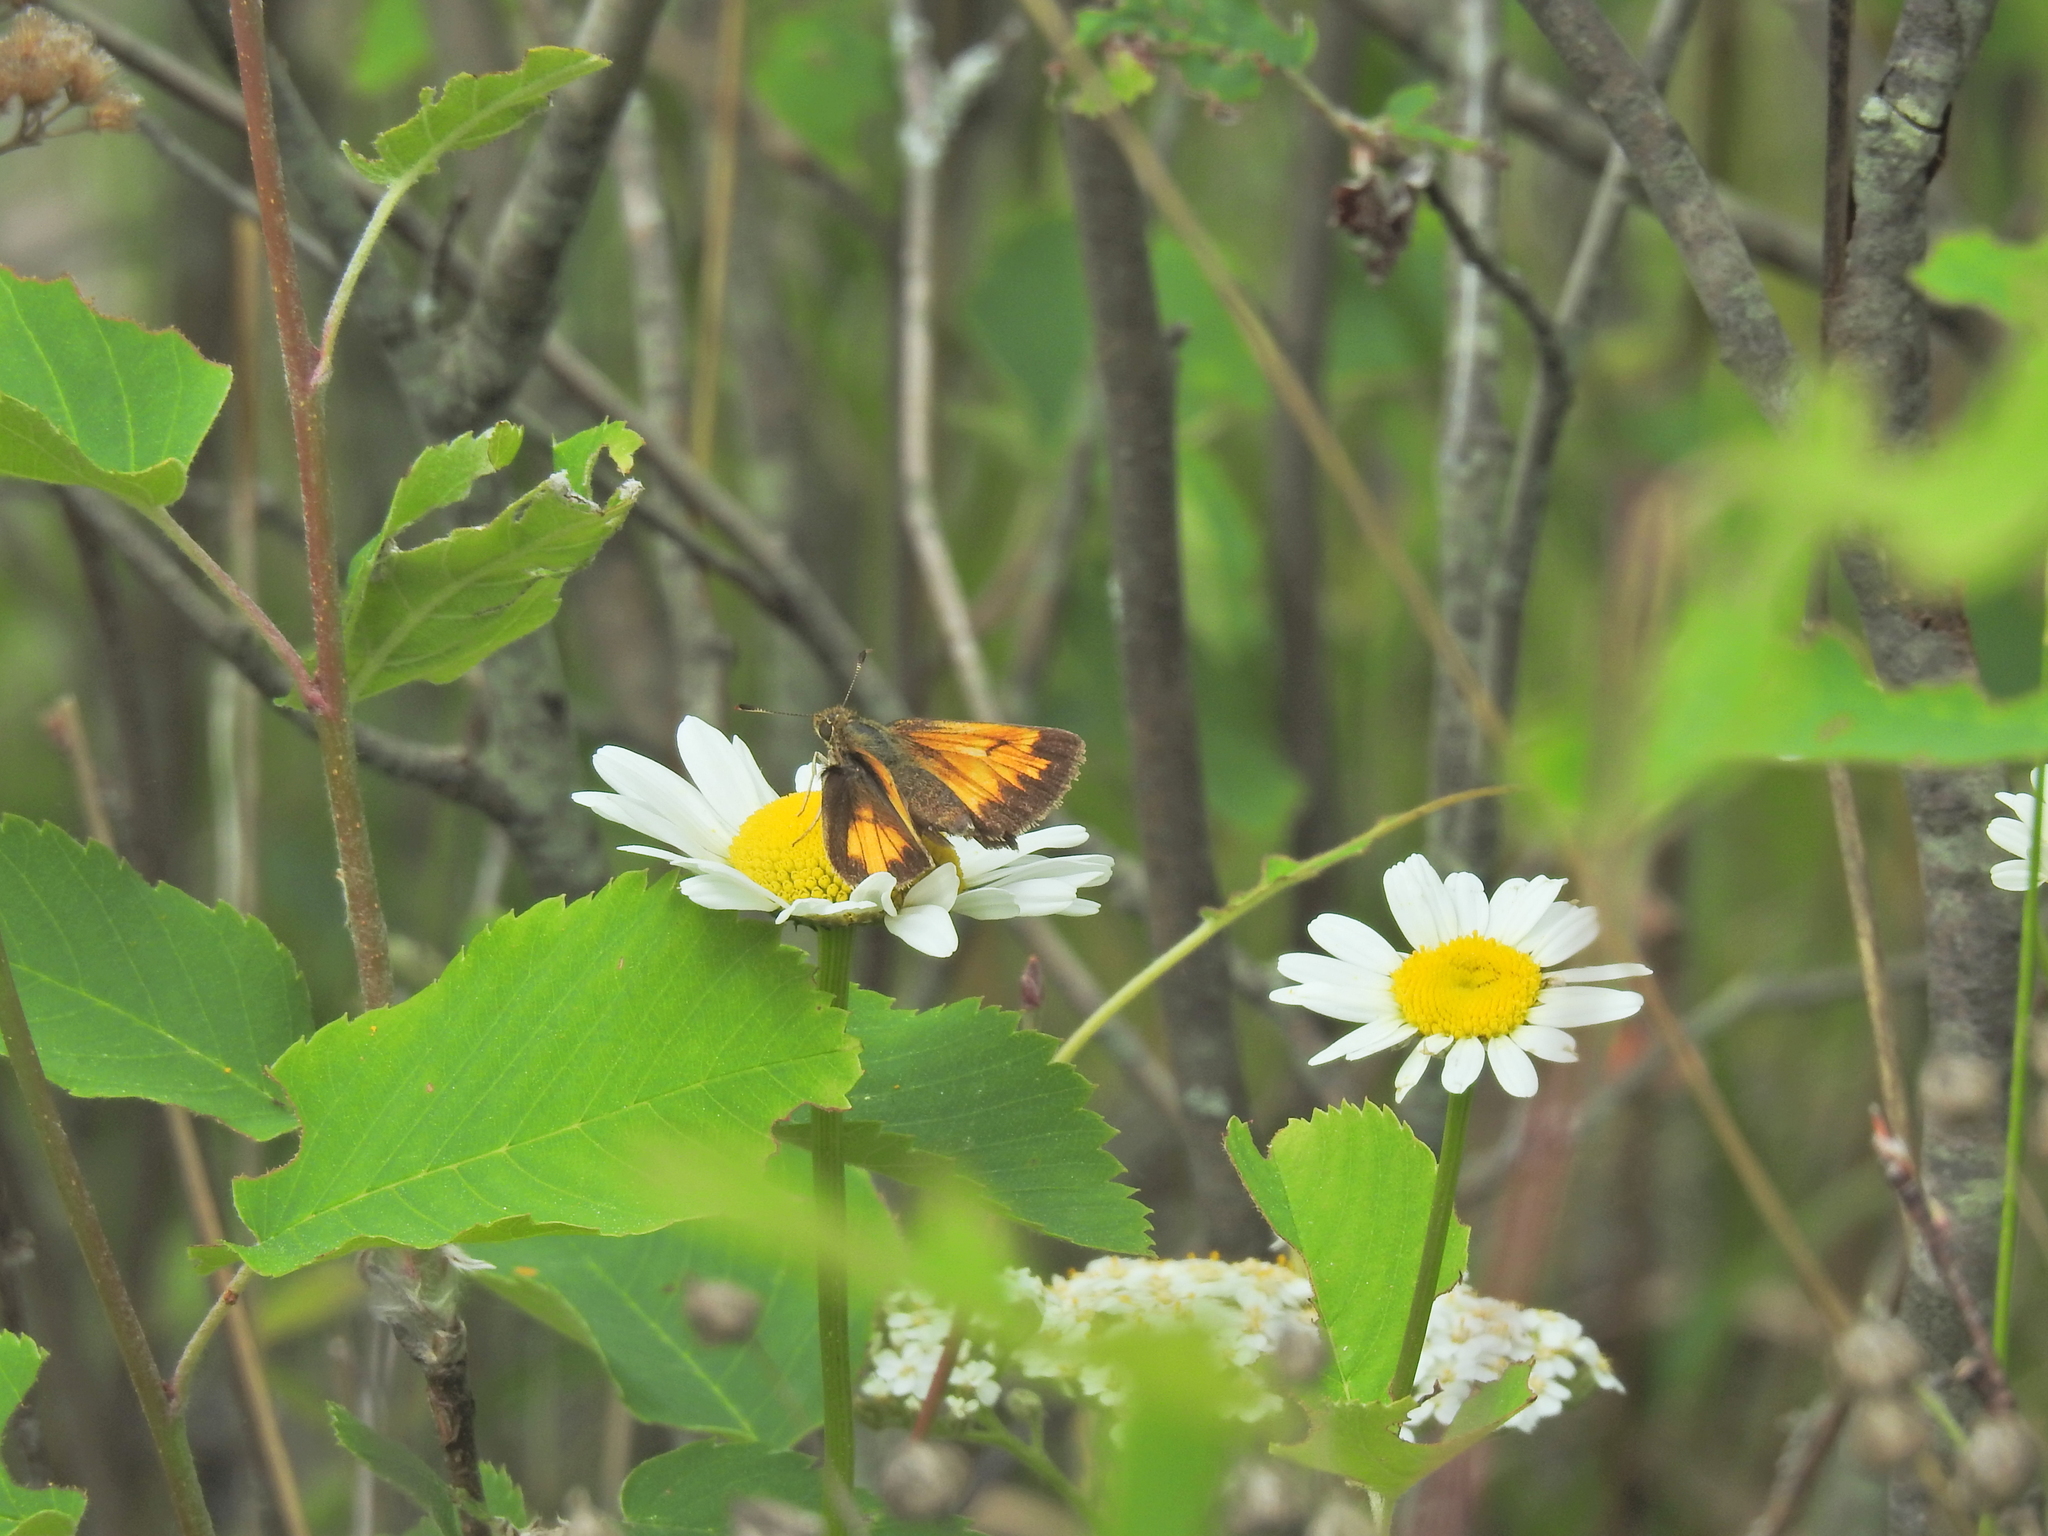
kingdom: Animalia
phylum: Arthropoda
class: Insecta
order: Lepidoptera
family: Hesperiidae
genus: Lon
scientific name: Lon hobomok
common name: Hobomok skipper
